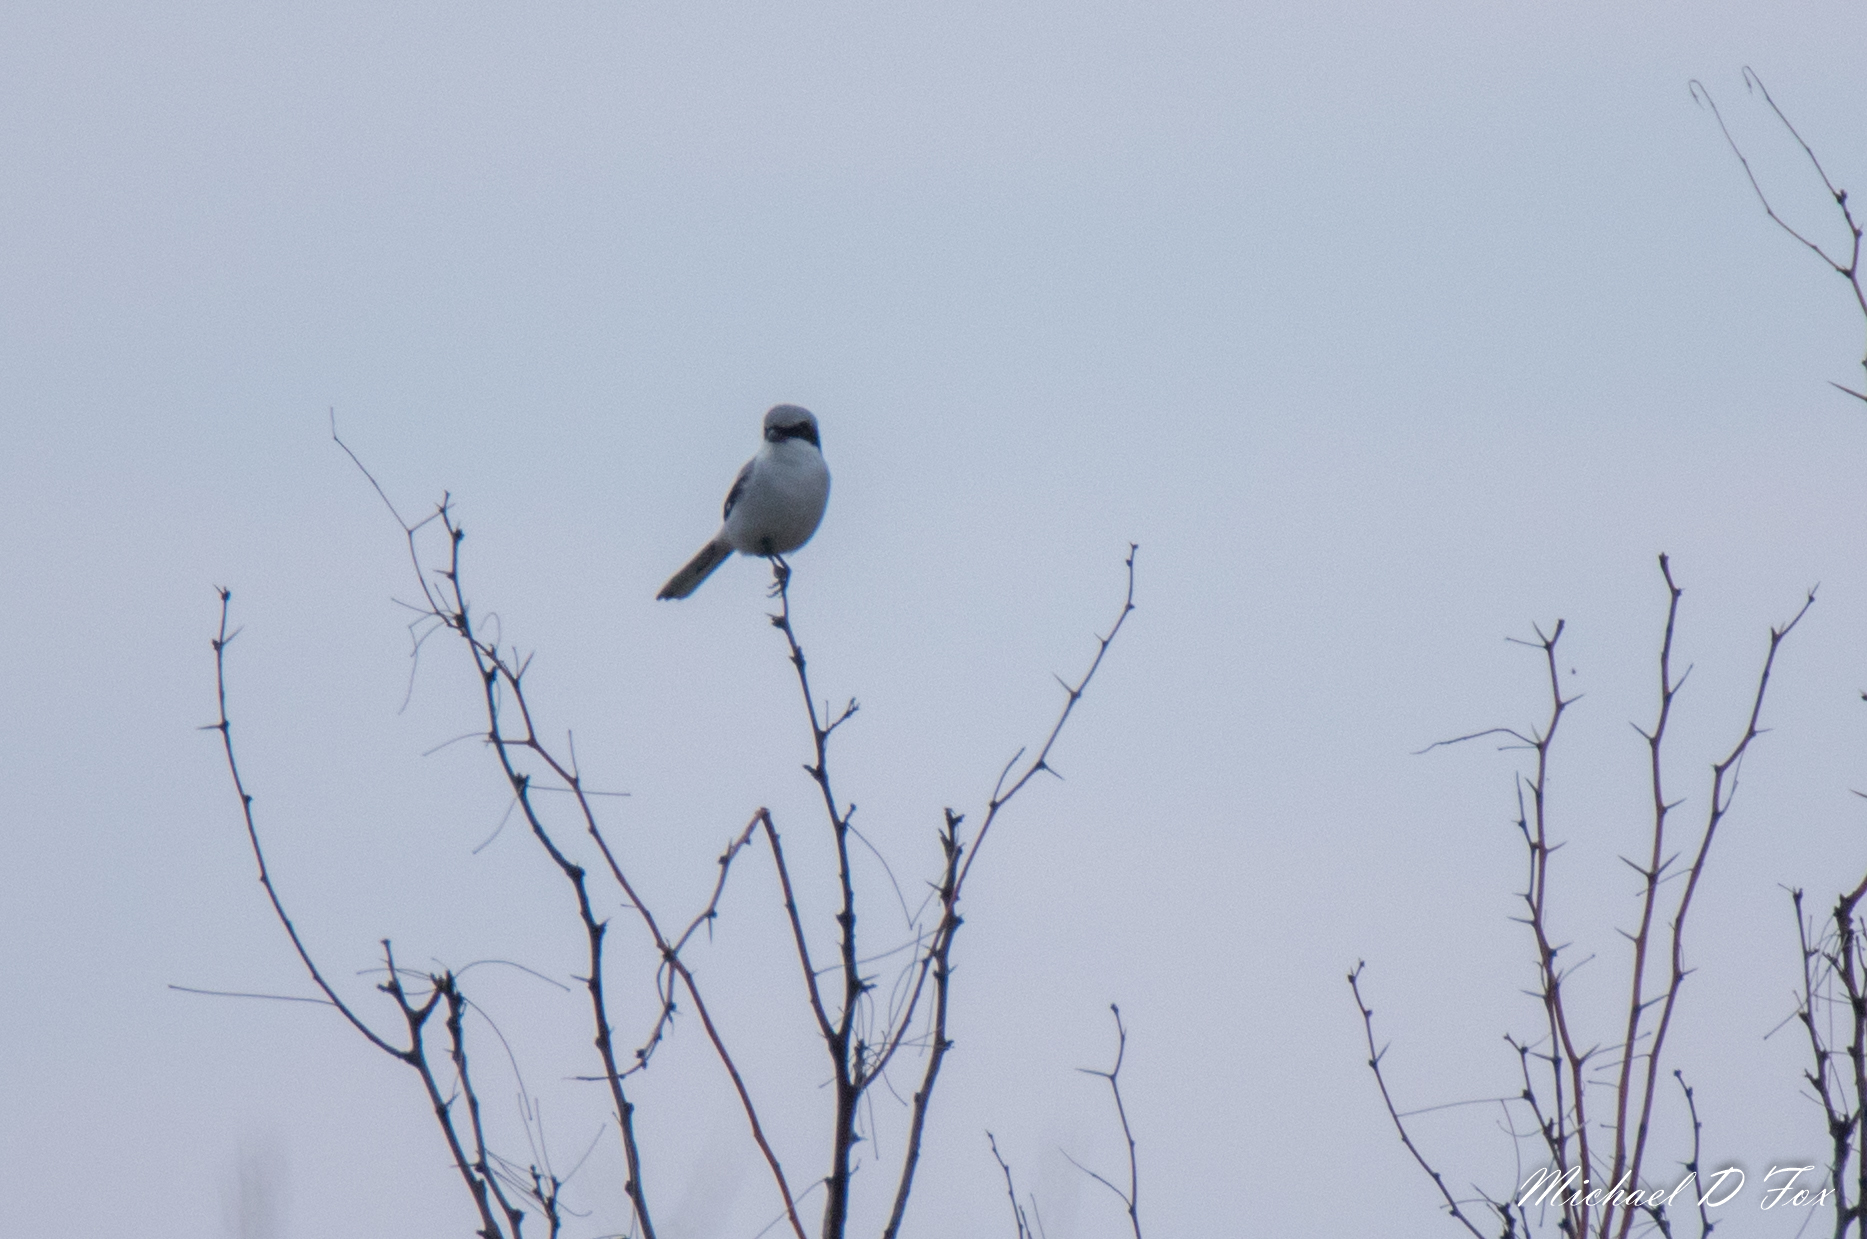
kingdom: Animalia
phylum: Chordata
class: Aves
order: Passeriformes
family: Laniidae
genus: Lanius
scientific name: Lanius ludovicianus
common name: Loggerhead shrike
